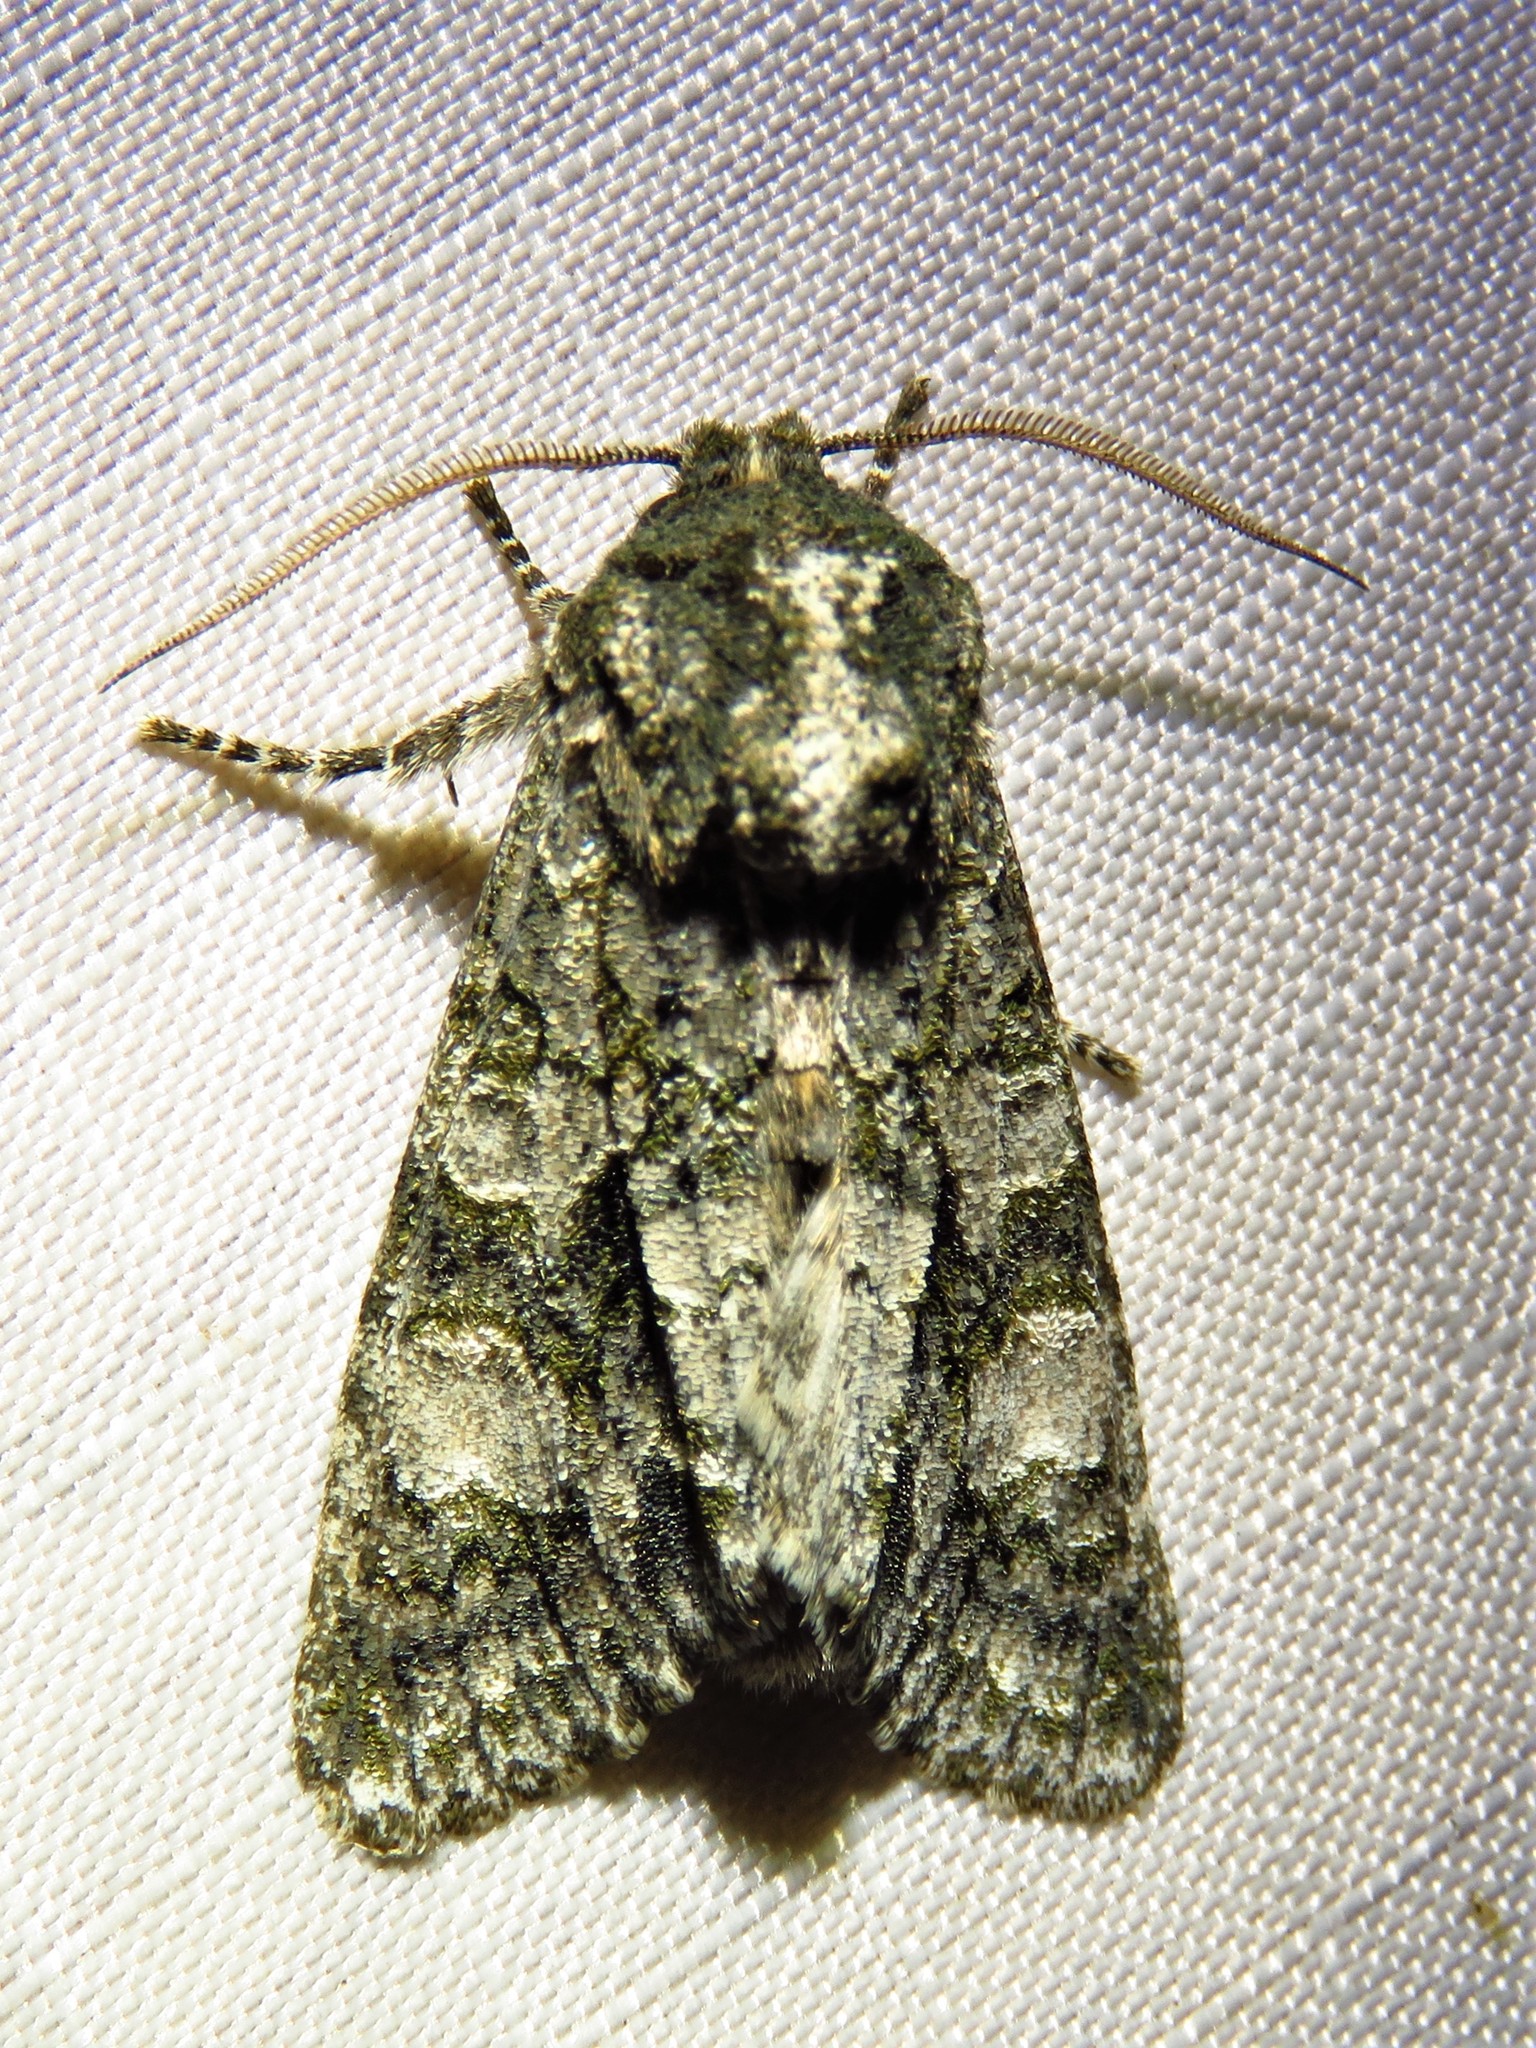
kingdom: Animalia
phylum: Arthropoda
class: Insecta
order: Lepidoptera
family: Noctuidae
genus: Psaphida
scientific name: Psaphida grotei
